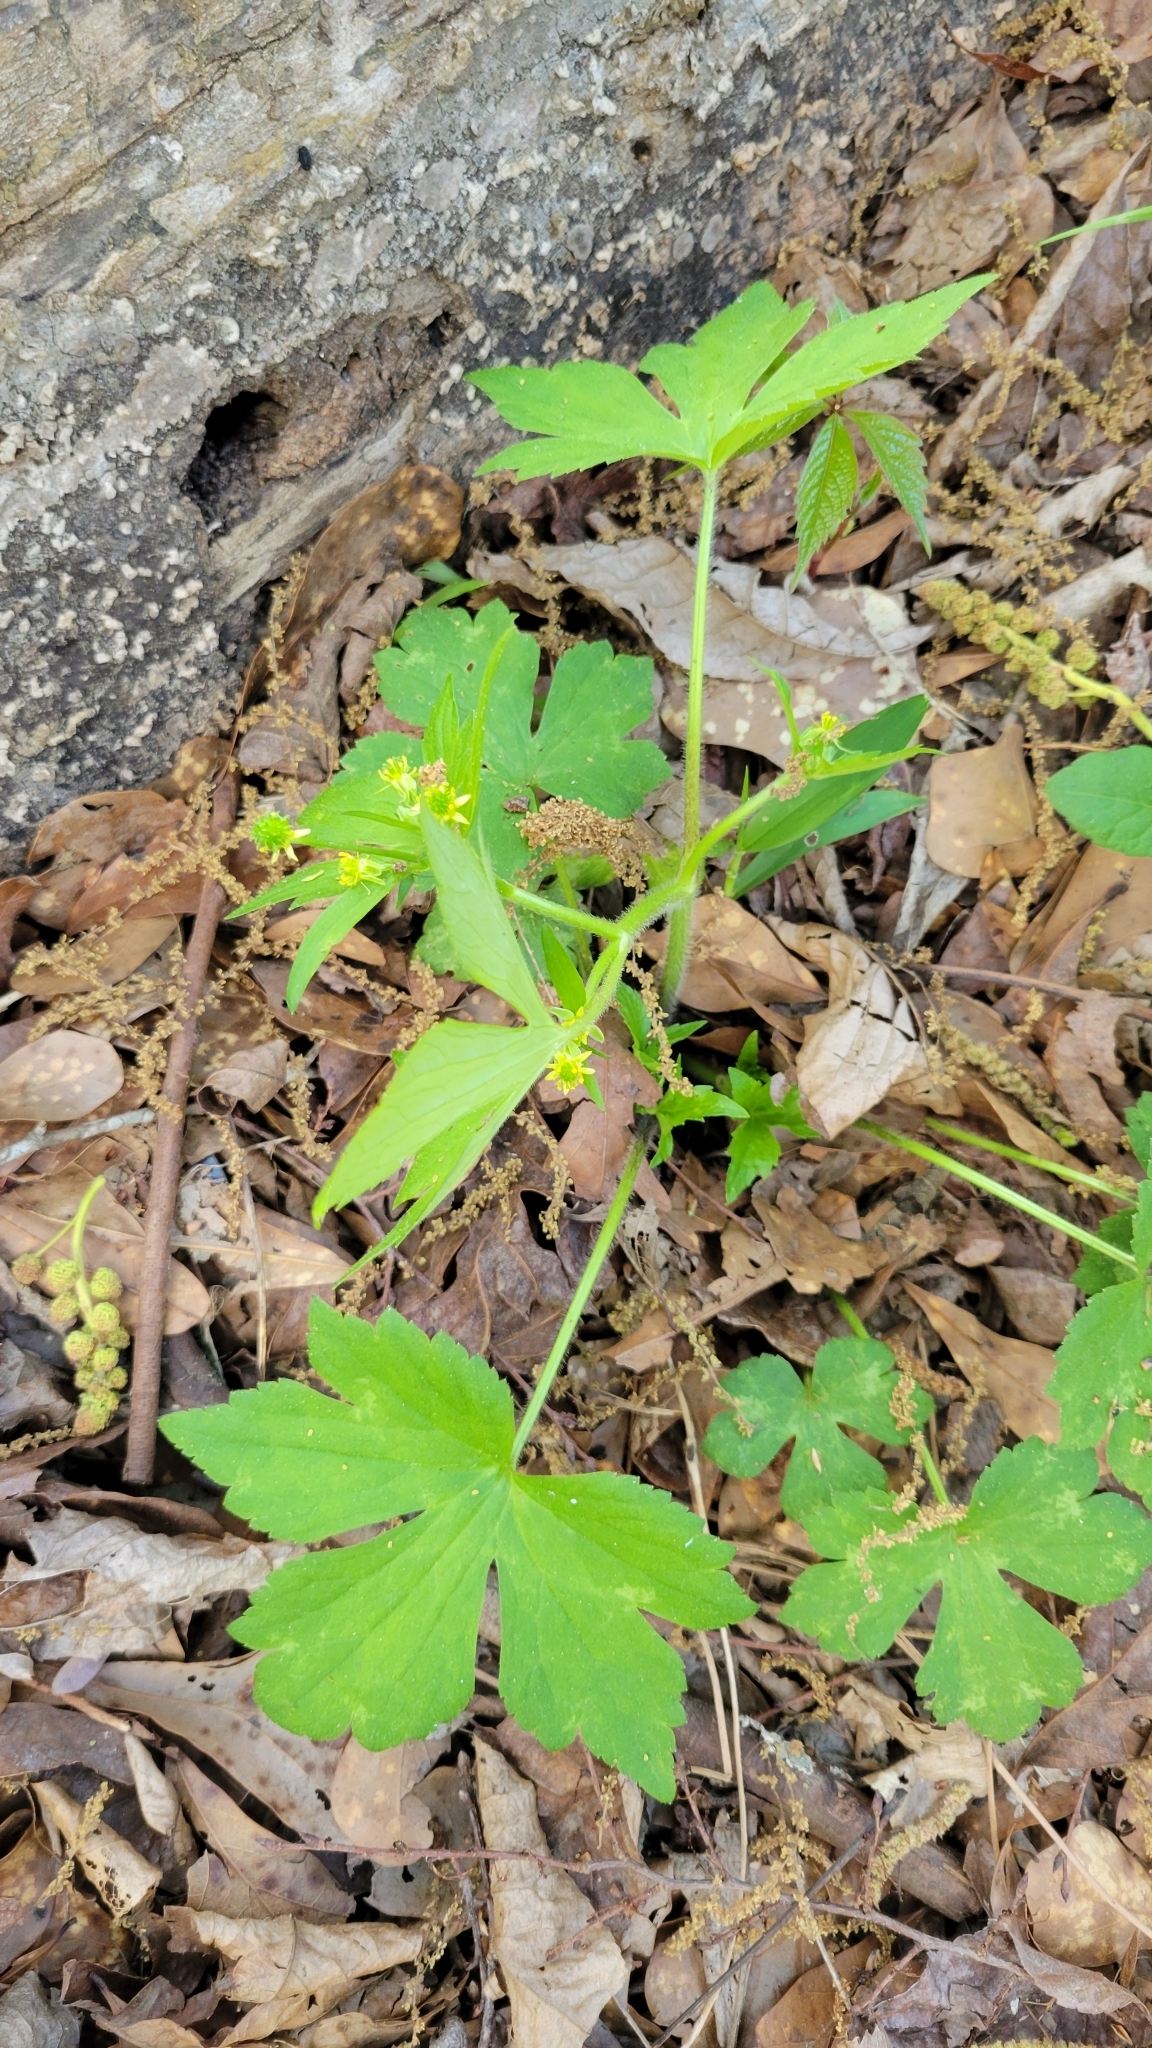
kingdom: Plantae
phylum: Tracheophyta
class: Magnoliopsida
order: Ranunculales
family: Ranunculaceae
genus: Ranunculus
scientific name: Ranunculus recurvatus
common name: Blisterwort
